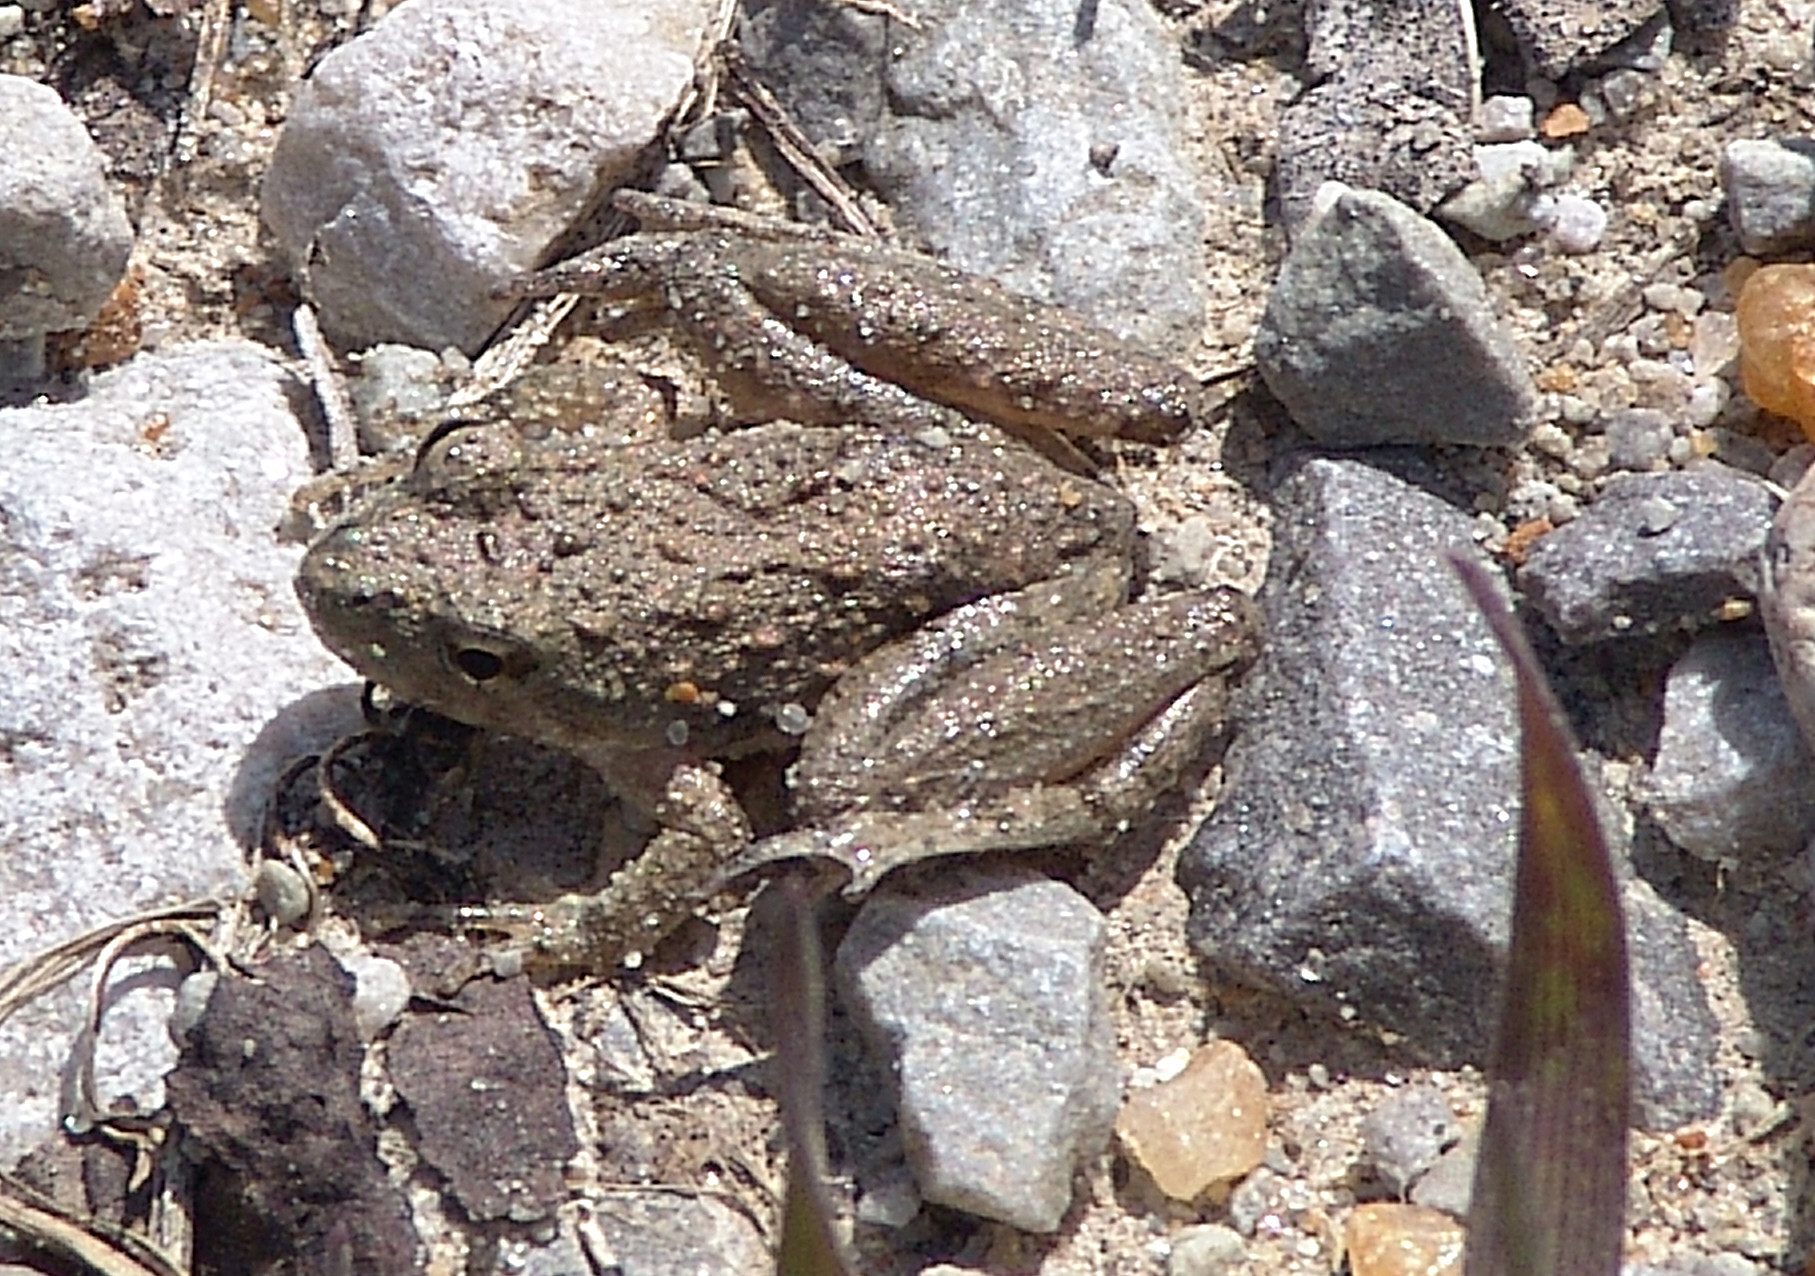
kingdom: Animalia
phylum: Chordata
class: Amphibia
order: Anura
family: Hylidae
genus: Acris
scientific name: Acris blanchardi
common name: Blanchard's cricket frog
